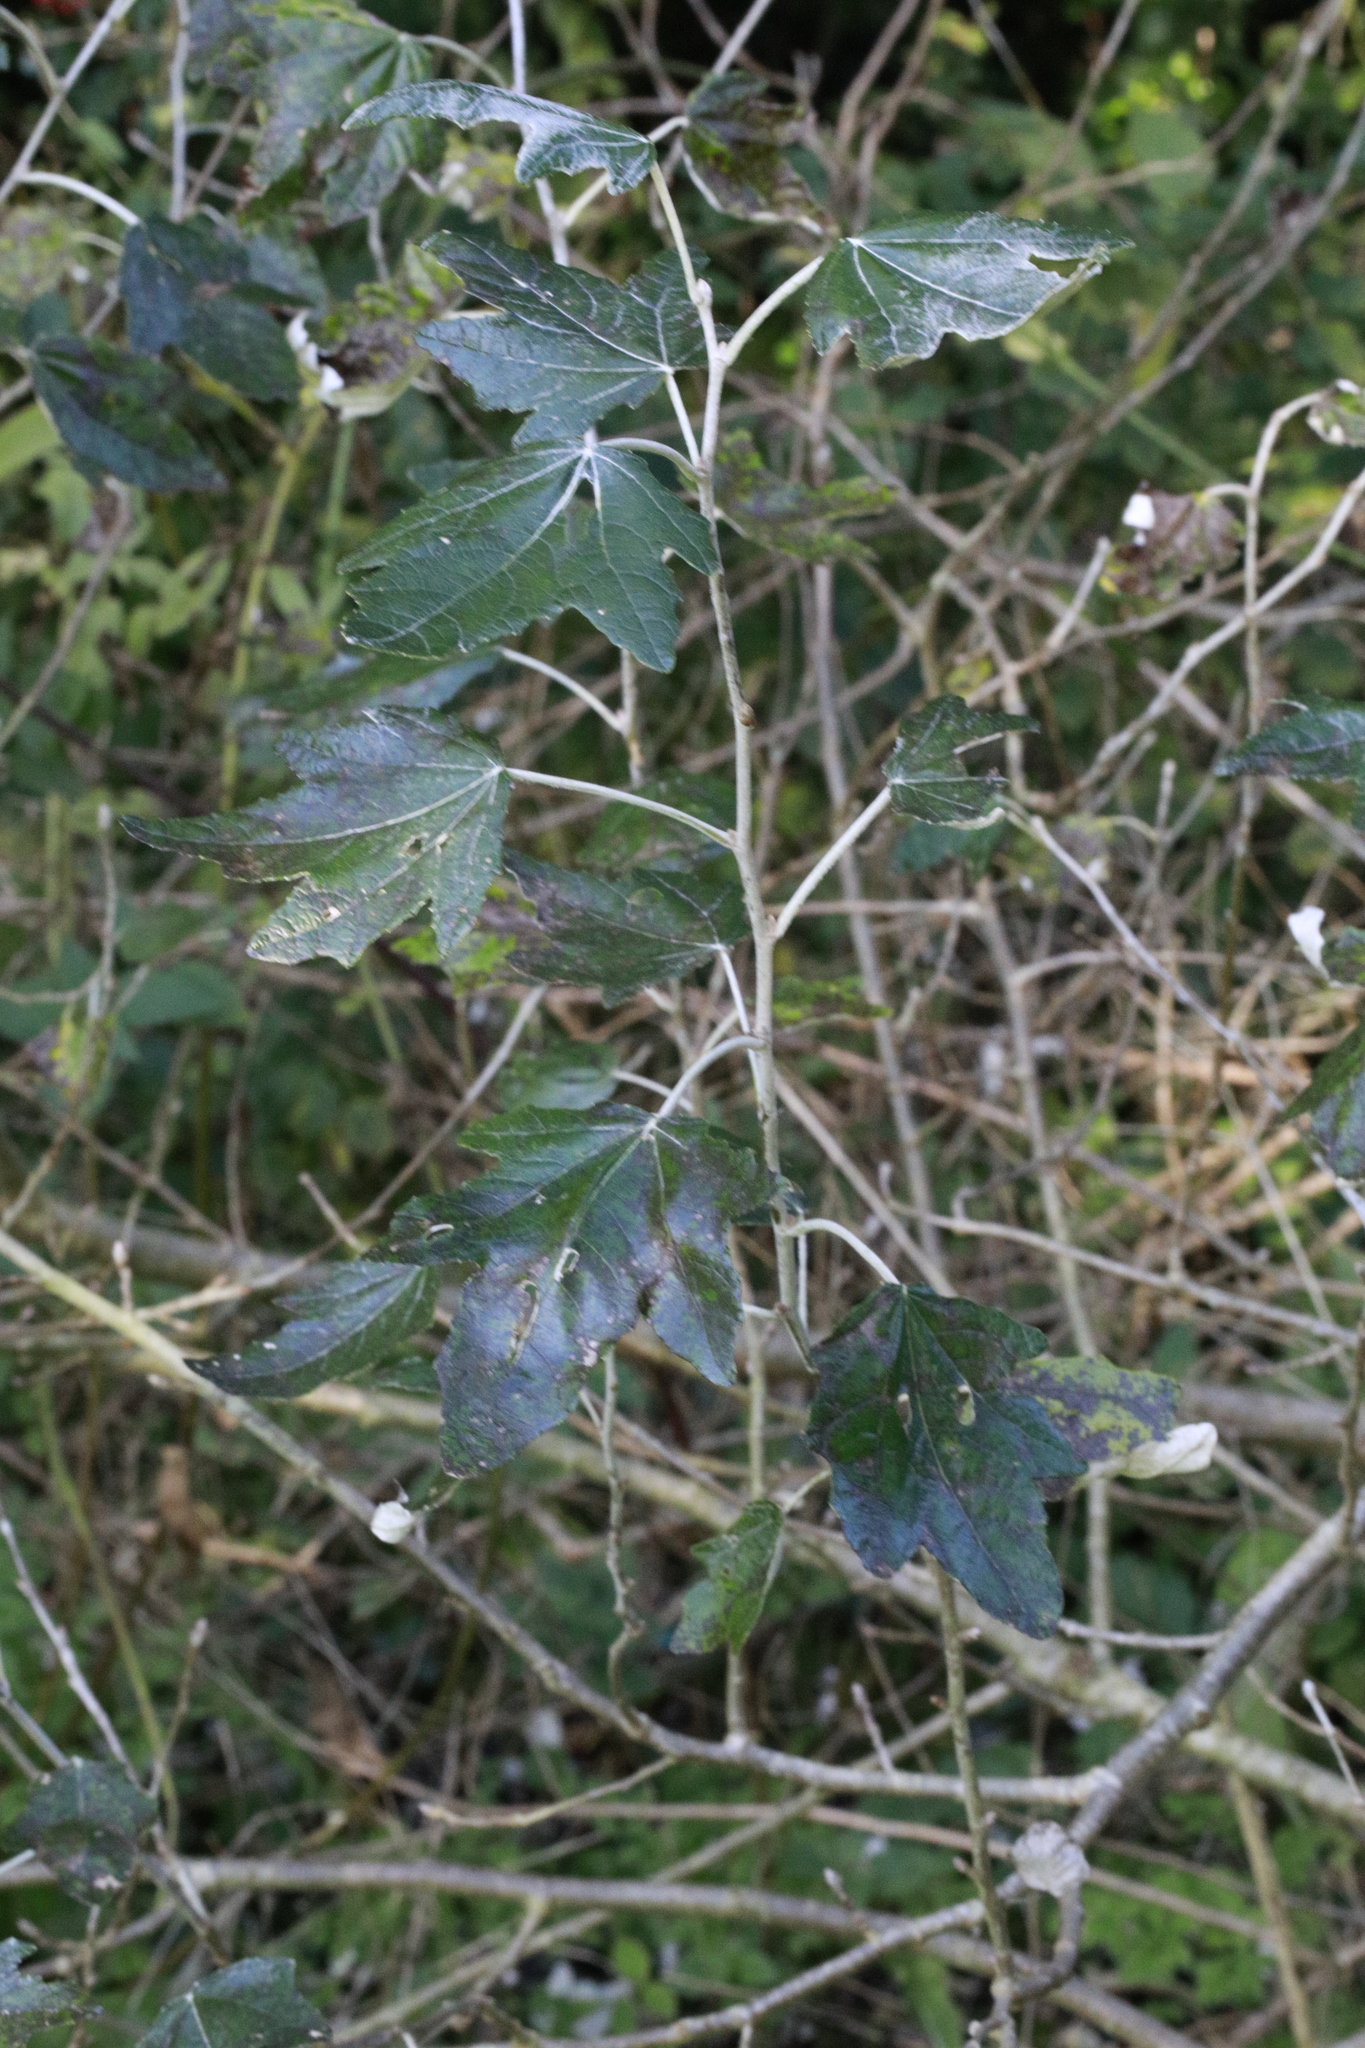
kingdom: Plantae
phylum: Tracheophyta
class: Magnoliopsida
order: Malpighiales
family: Salicaceae
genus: Populus
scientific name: Populus alba
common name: White poplar
